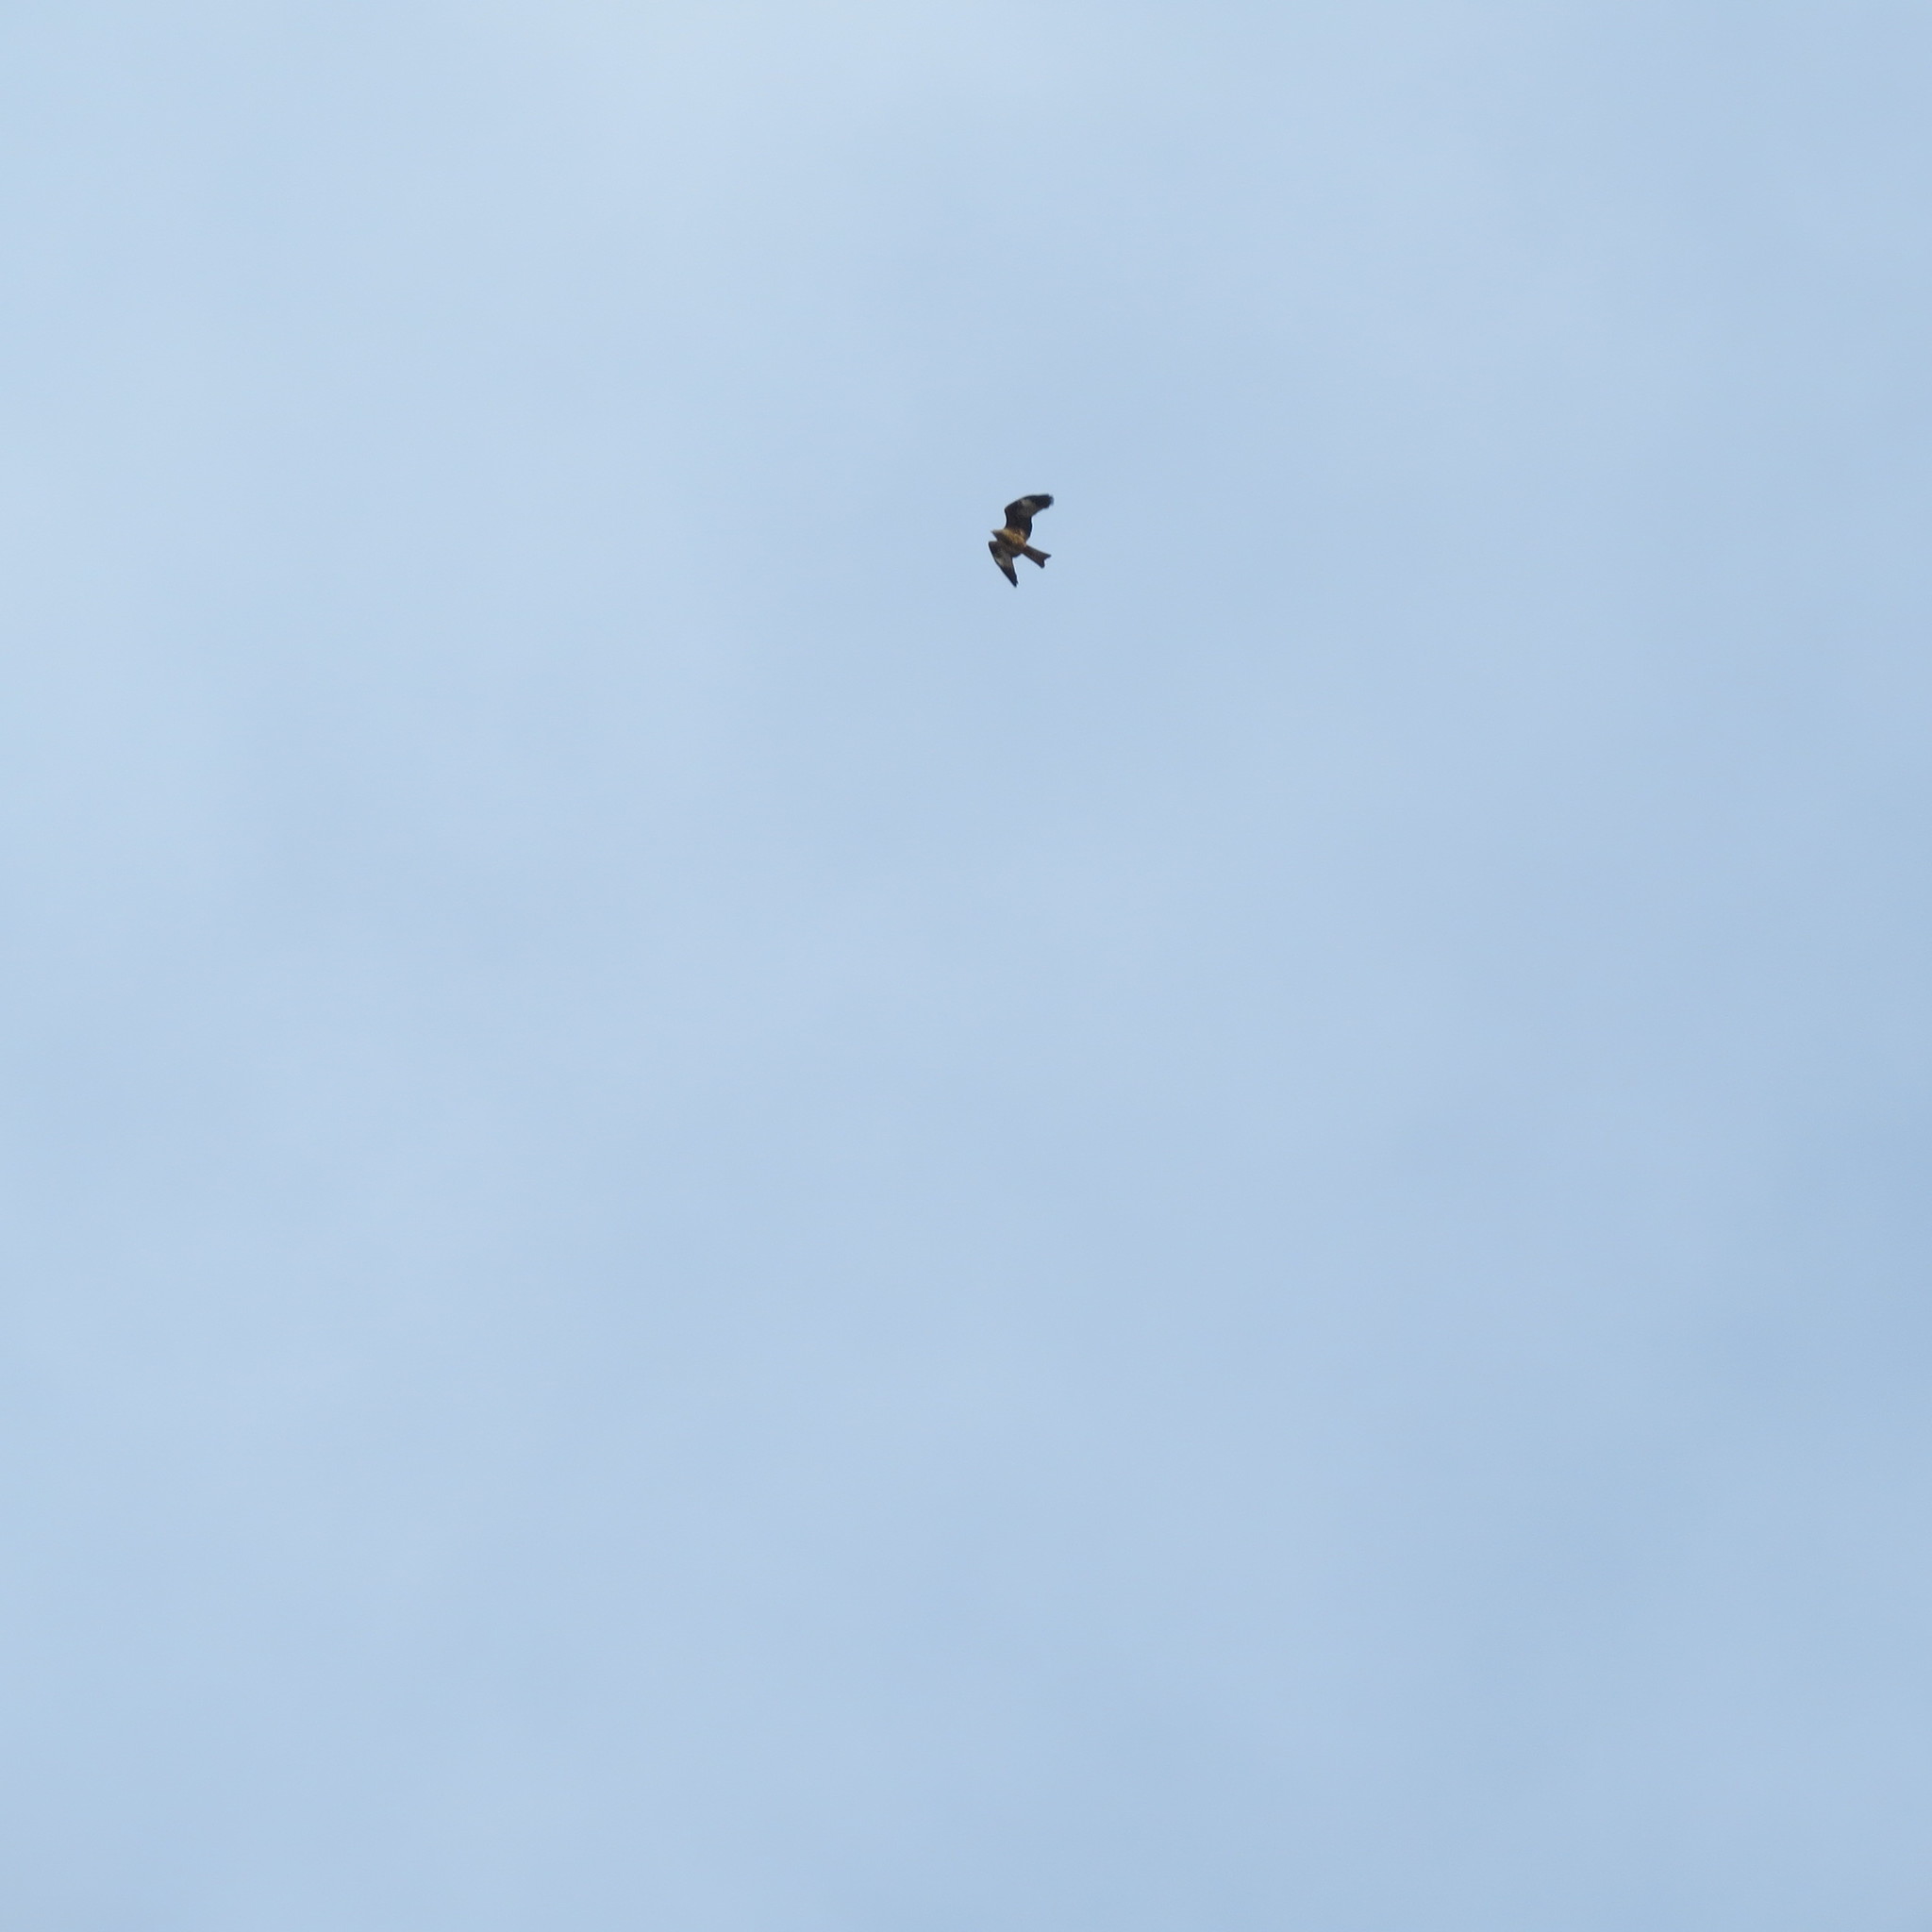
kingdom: Animalia
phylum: Chordata
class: Aves
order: Accipitriformes
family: Accipitridae
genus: Milvus
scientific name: Milvus migrans
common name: Black kite
